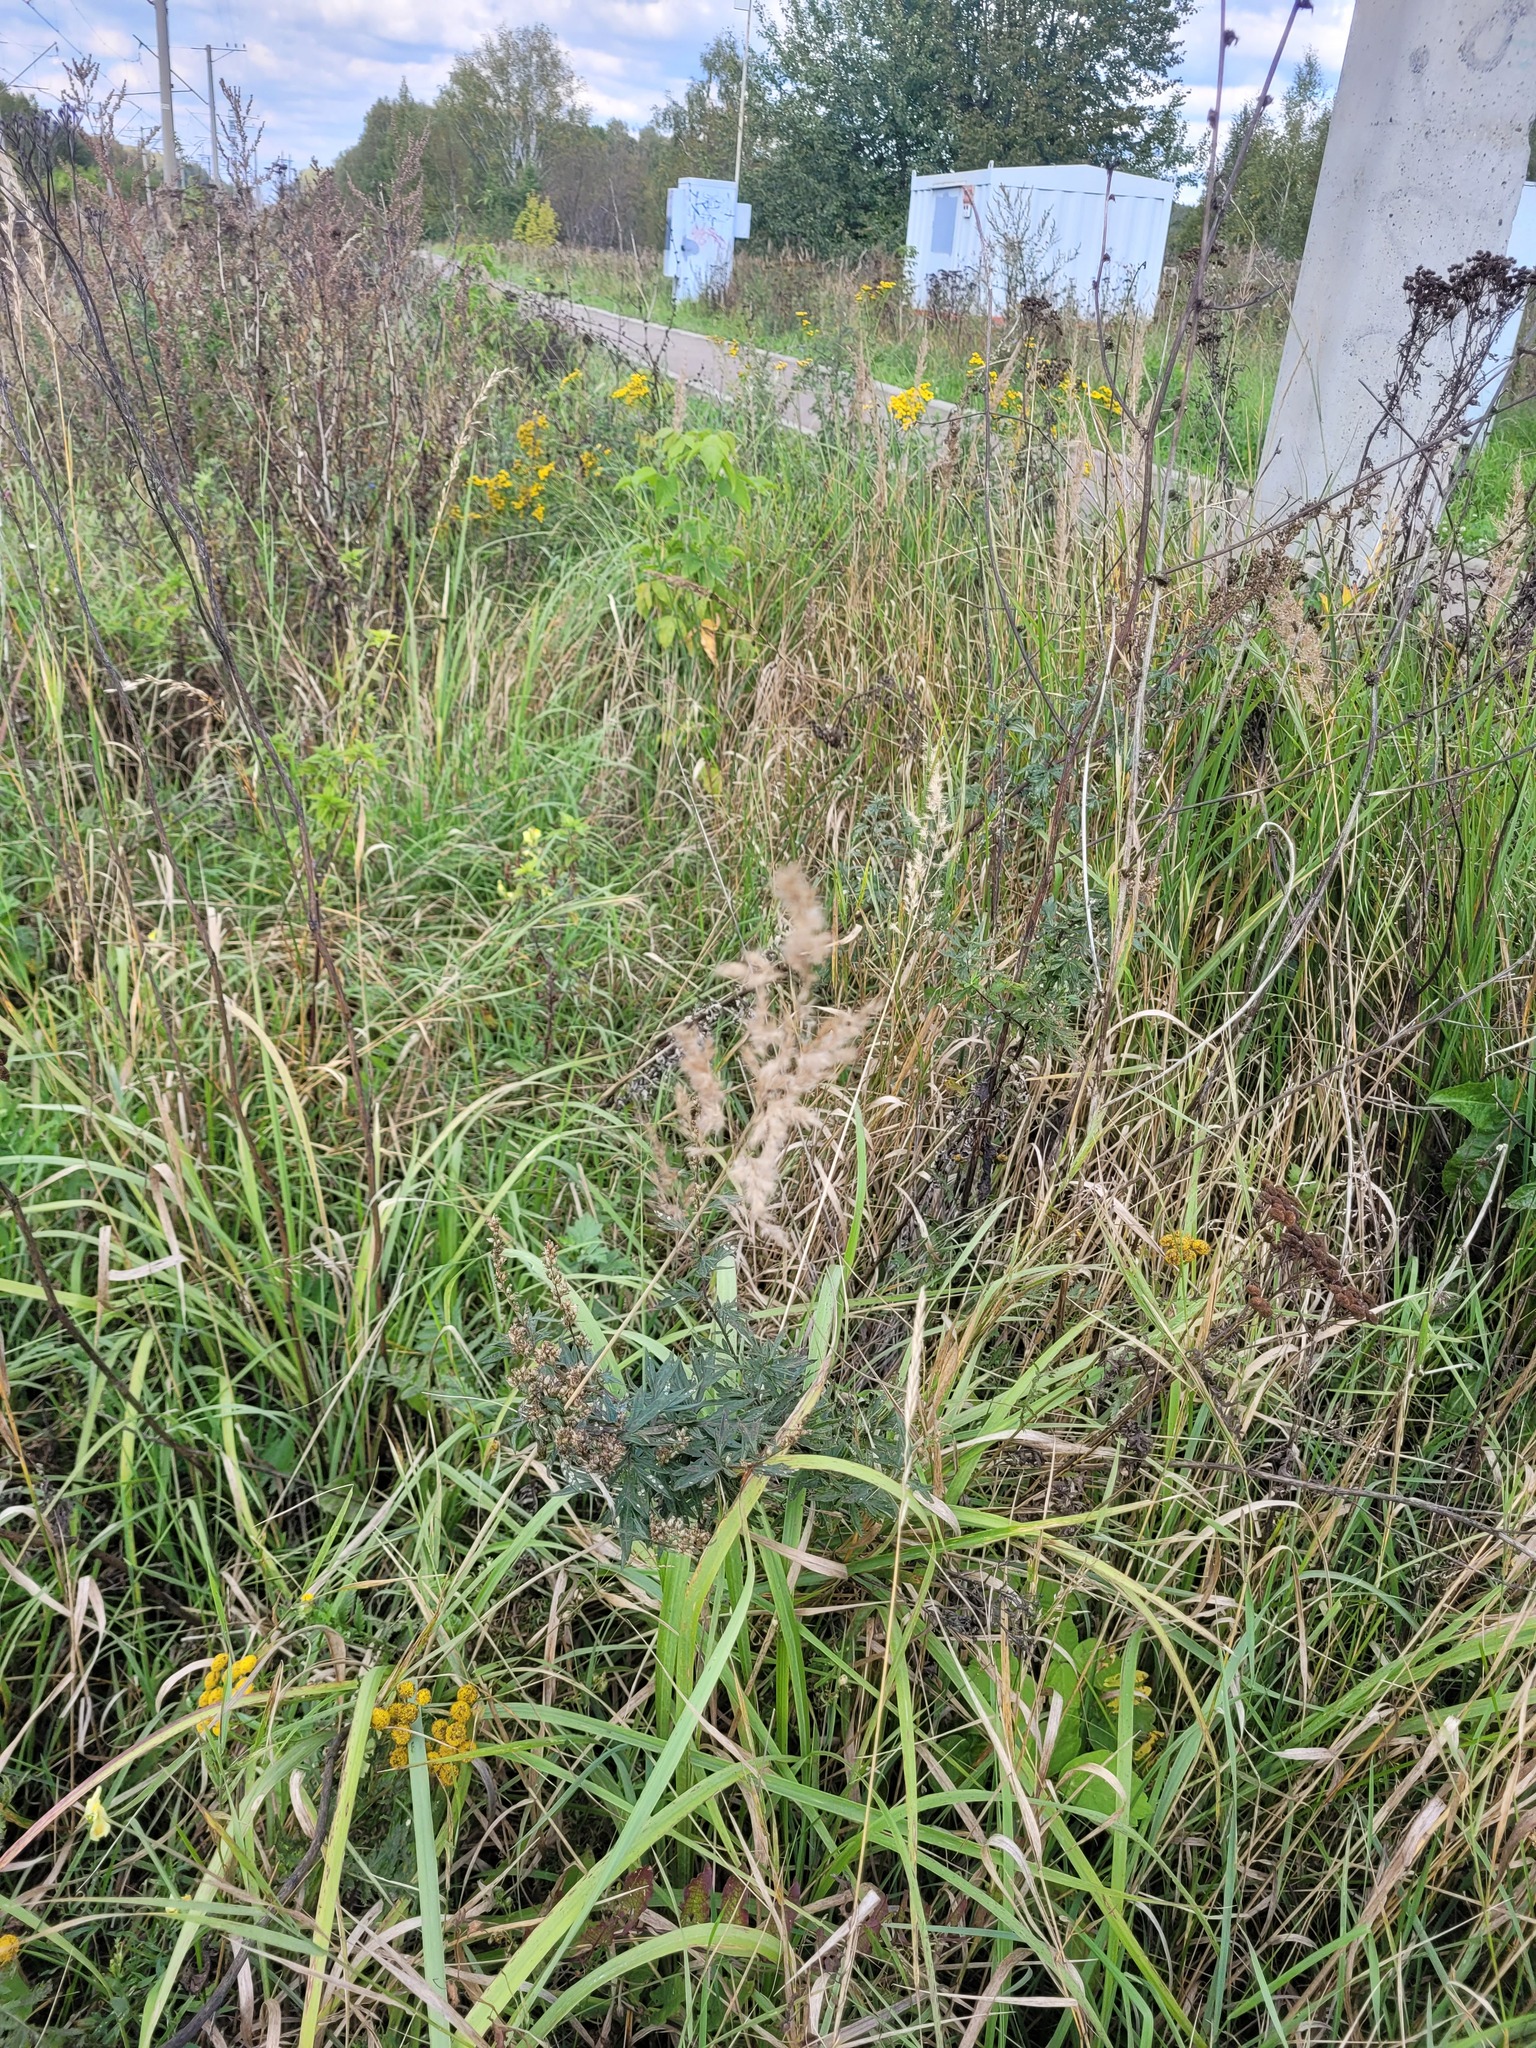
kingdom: Plantae
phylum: Tracheophyta
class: Liliopsida
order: Poales
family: Poaceae
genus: Calamagrostis
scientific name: Calamagrostis epigejos
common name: Wood small-reed
